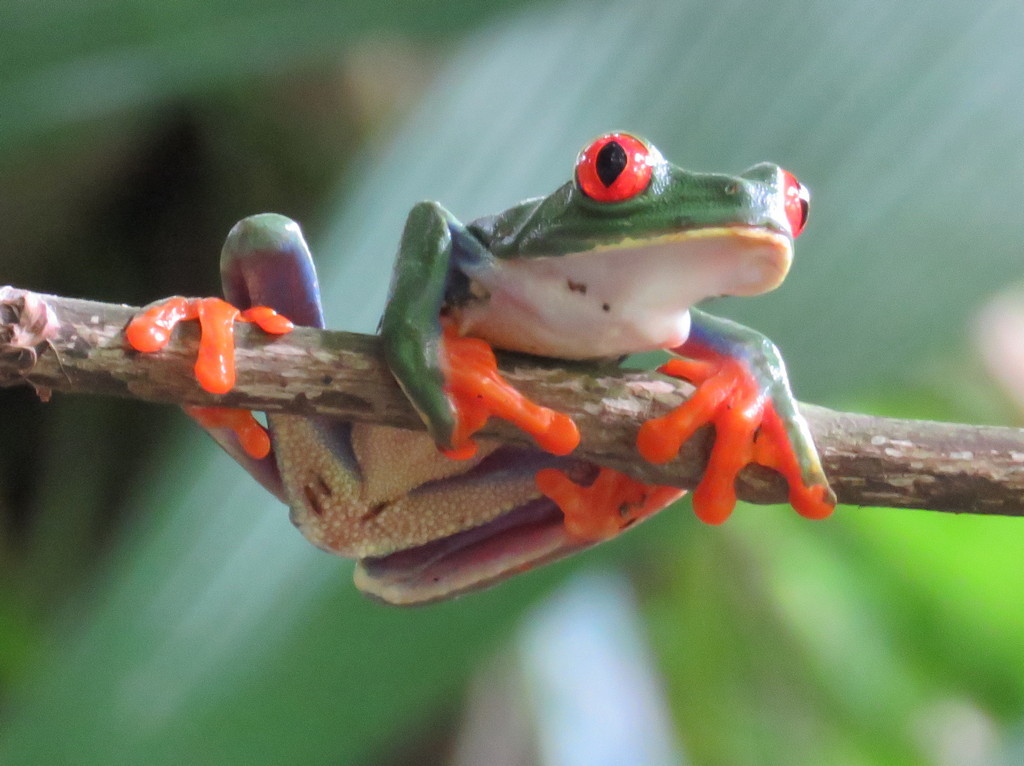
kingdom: Animalia
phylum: Chordata
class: Amphibia
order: Anura
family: Phyllomedusidae
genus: Agalychnis
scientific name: Agalychnis callidryas
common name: Red-eyed treefrog
